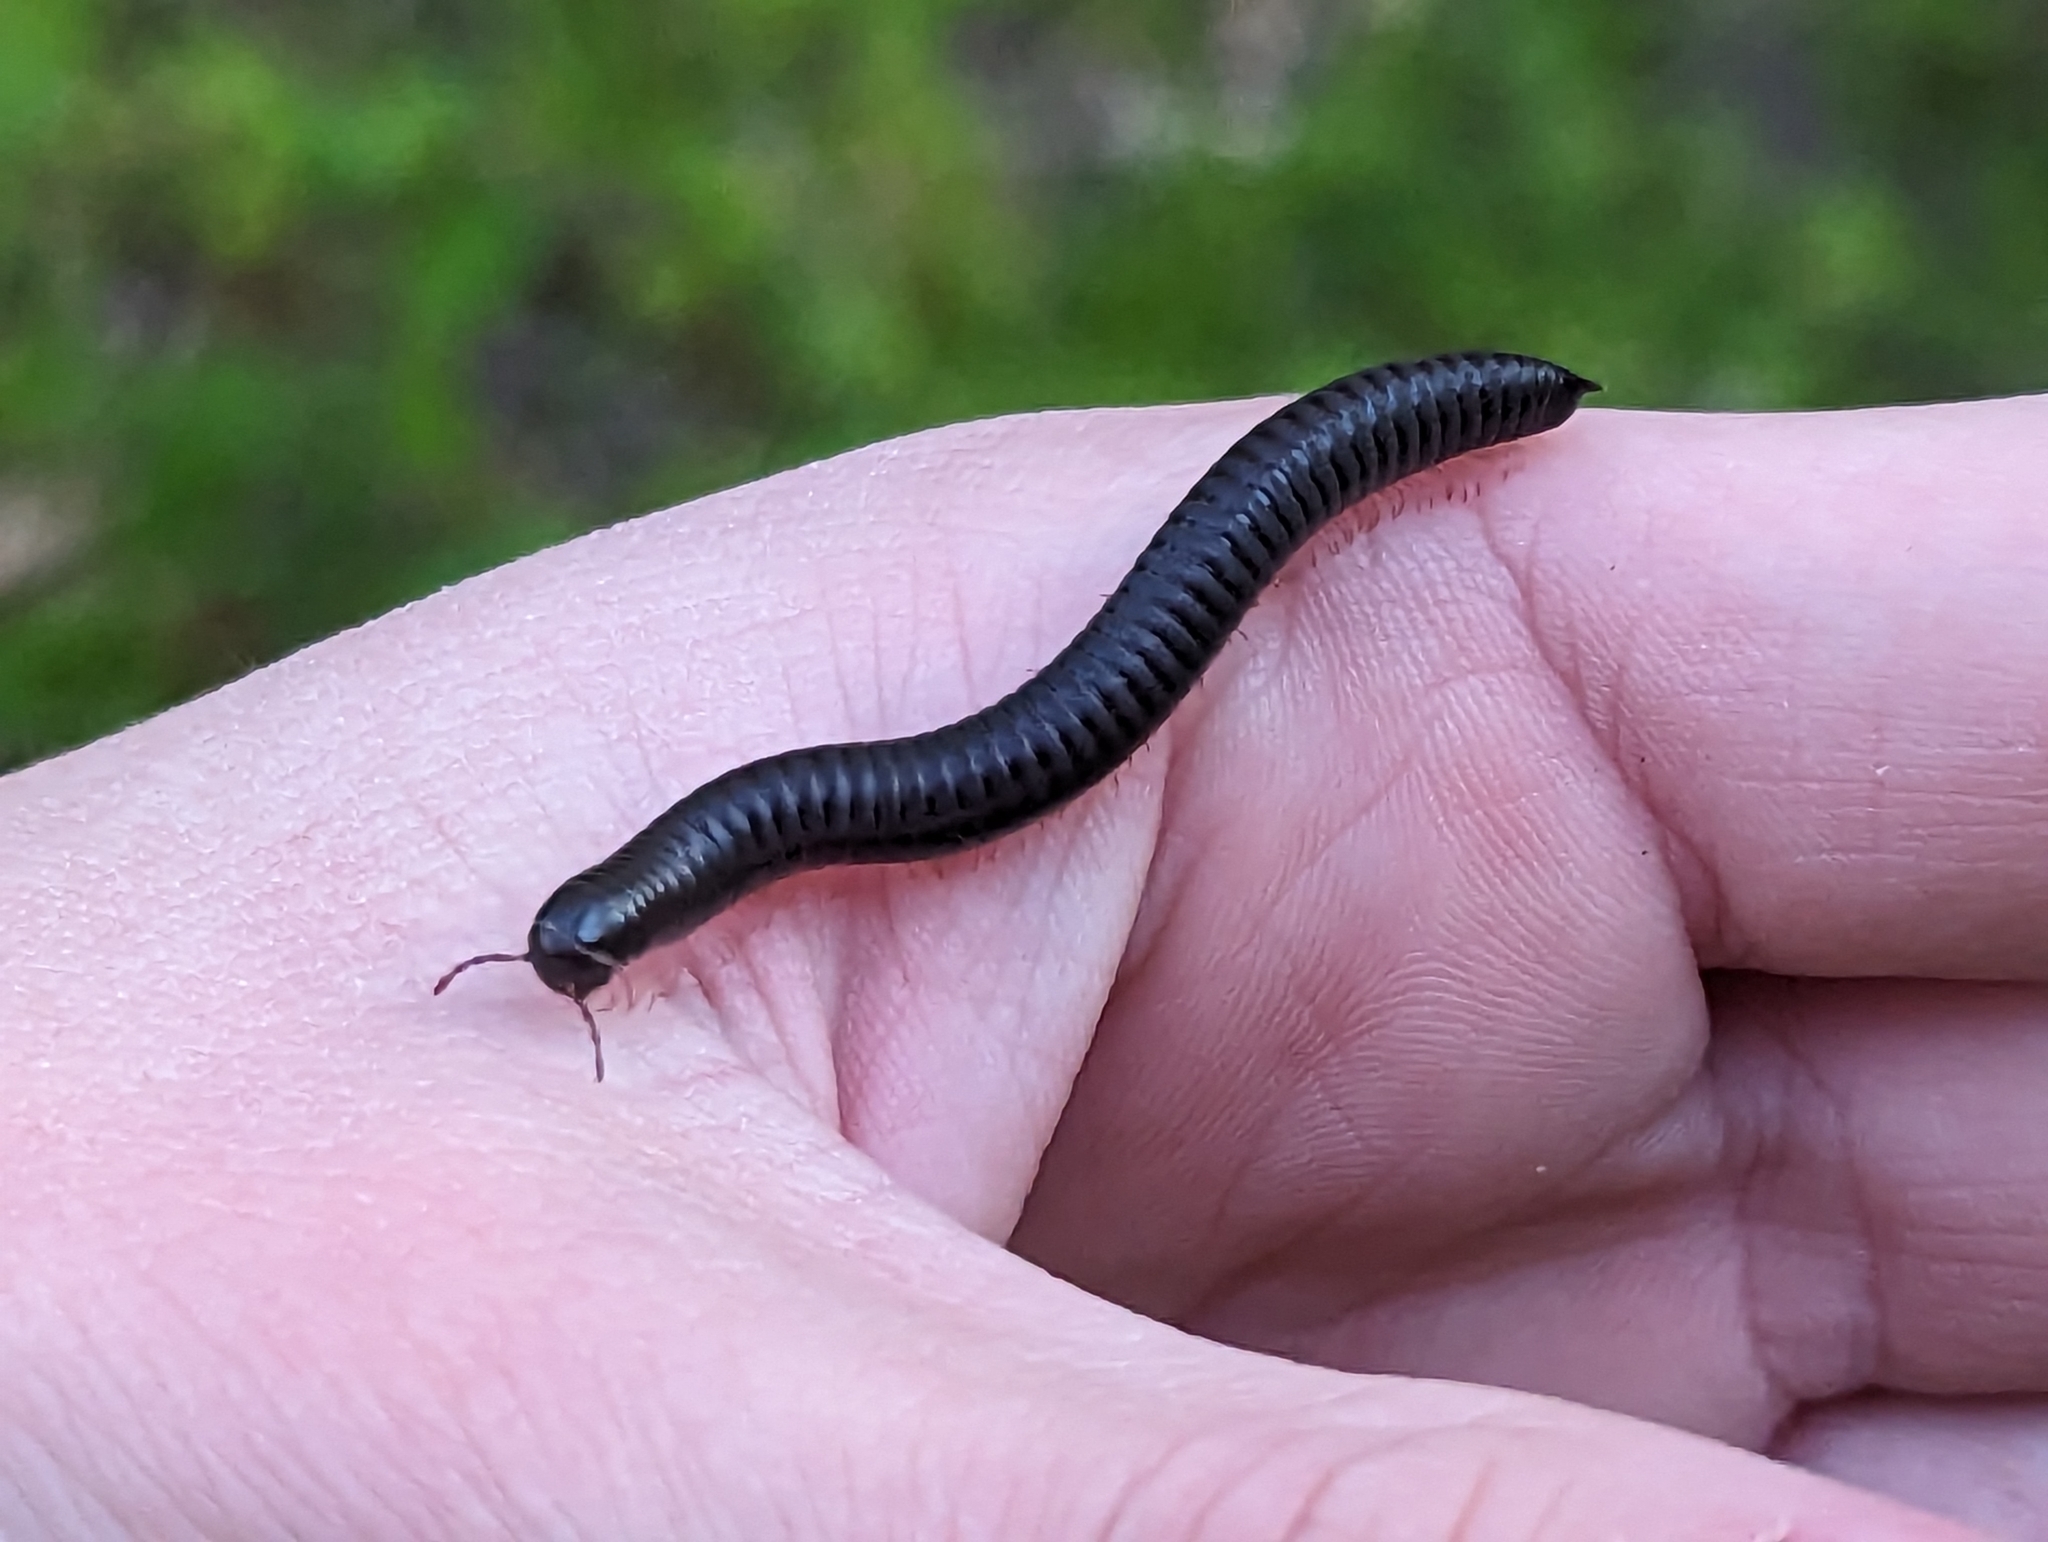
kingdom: Animalia
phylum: Arthropoda
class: Diplopoda
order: Julida
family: Julidae
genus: Ommatoiulus
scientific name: Ommatoiulus moreleti
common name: Portuguese millipede
